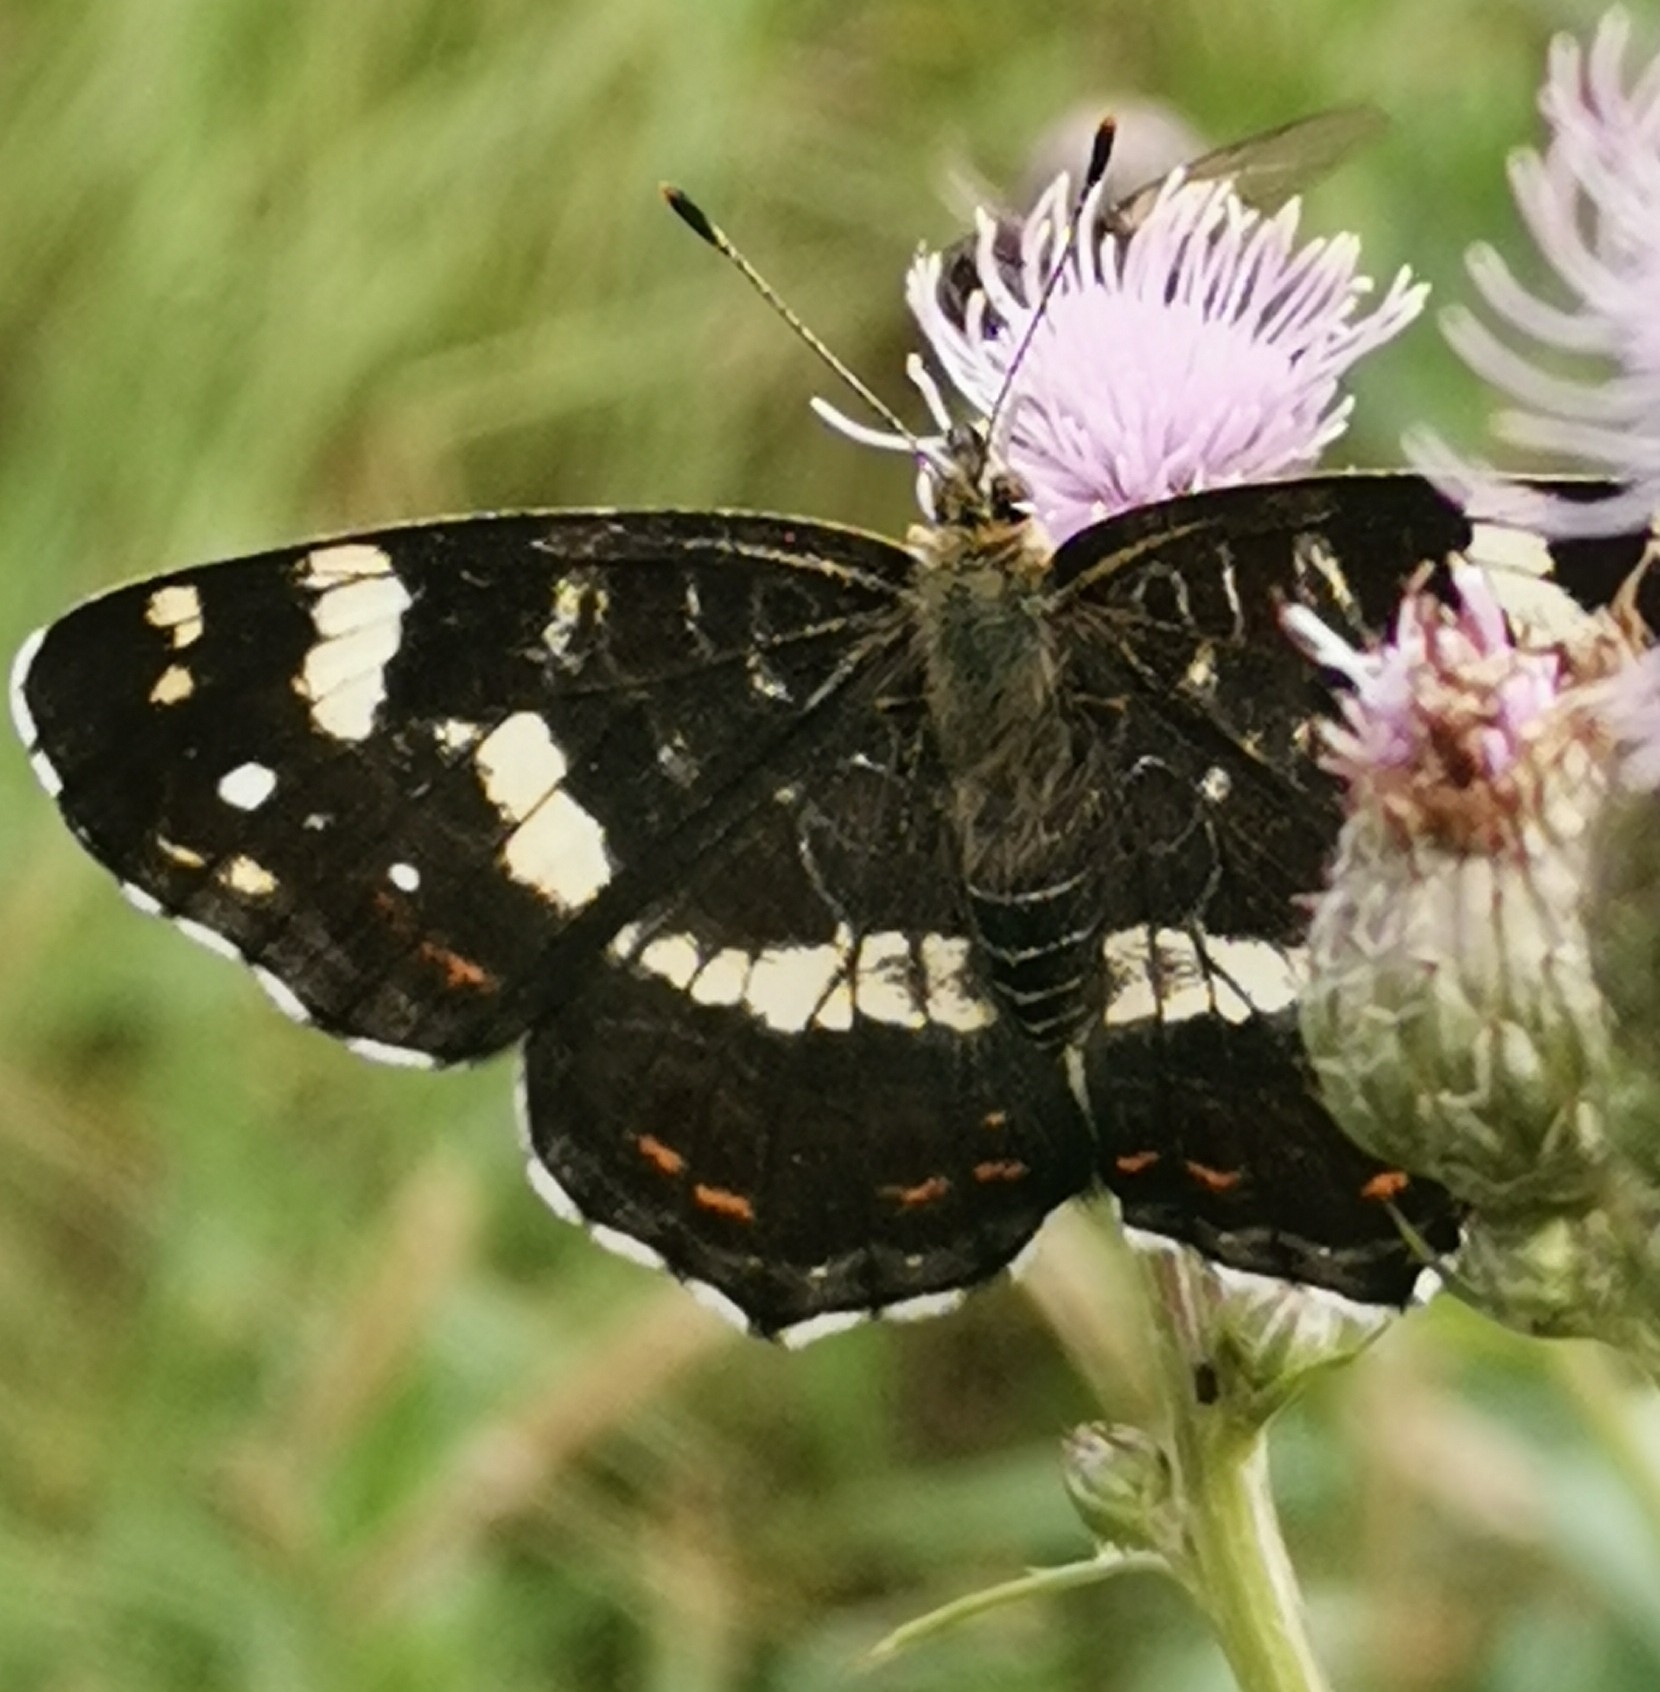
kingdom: Animalia
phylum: Arthropoda
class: Insecta
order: Lepidoptera
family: Nymphalidae
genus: Araschnia
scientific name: Araschnia levana
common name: Map butterfly
